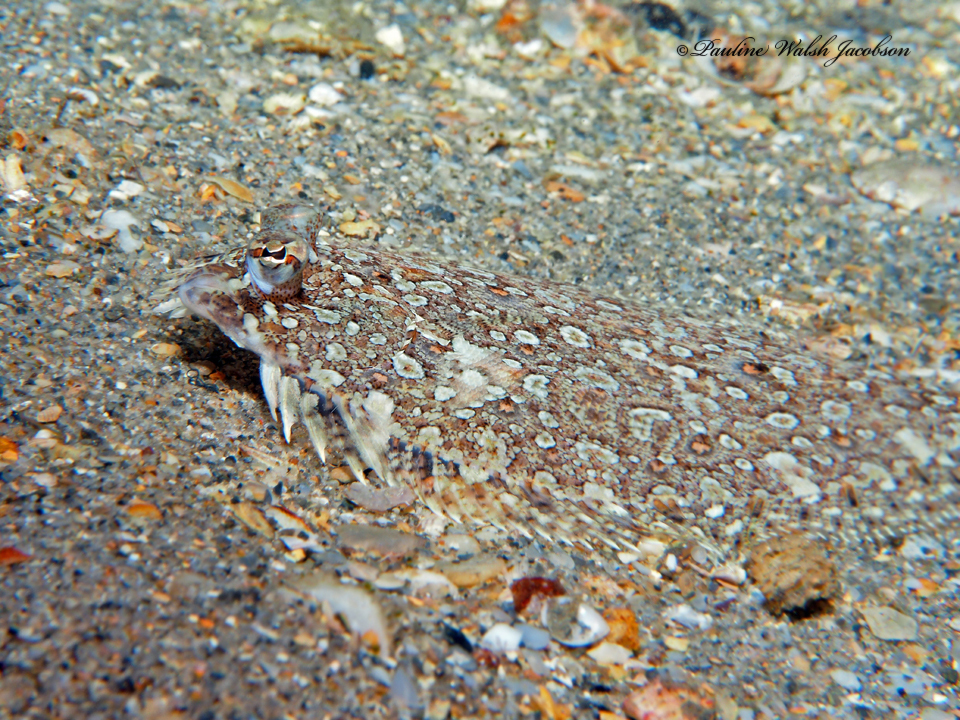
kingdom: Animalia
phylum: Chordata
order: Pleuronectiformes
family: Bothidae
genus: Bothus
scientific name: Bothus ocellatus
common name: Eyed flounder
